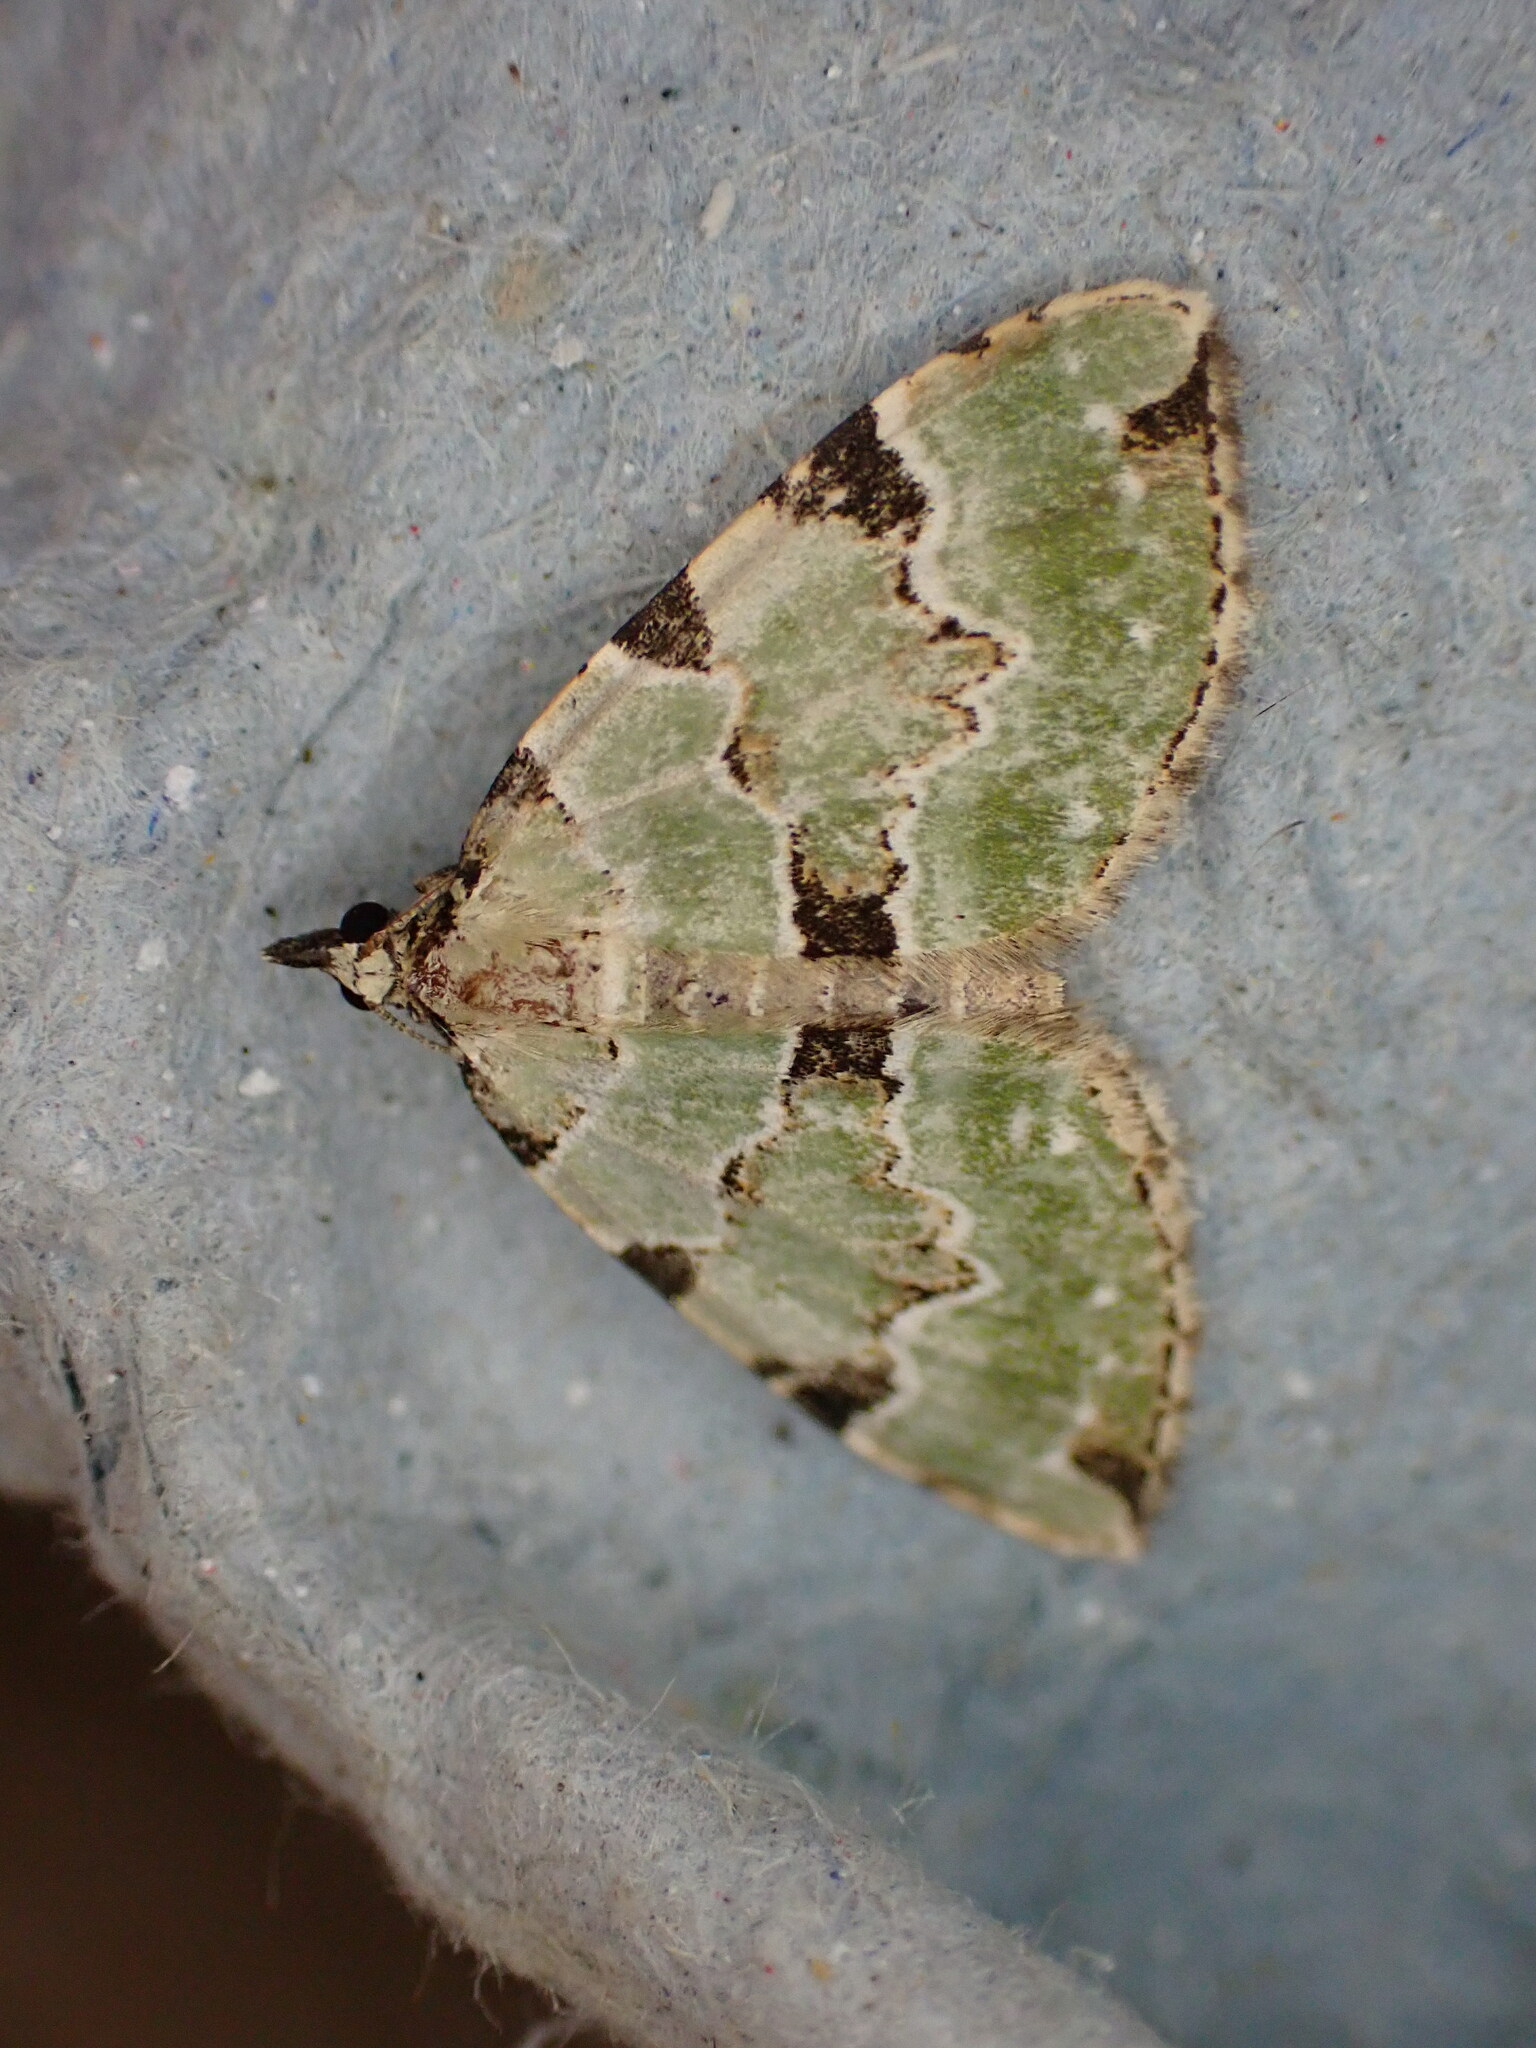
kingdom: Animalia
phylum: Arthropoda
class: Insecta
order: Lepidoptera
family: Geometridae
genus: Colostygia
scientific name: Colostygia pectinataria
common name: Green carpet
